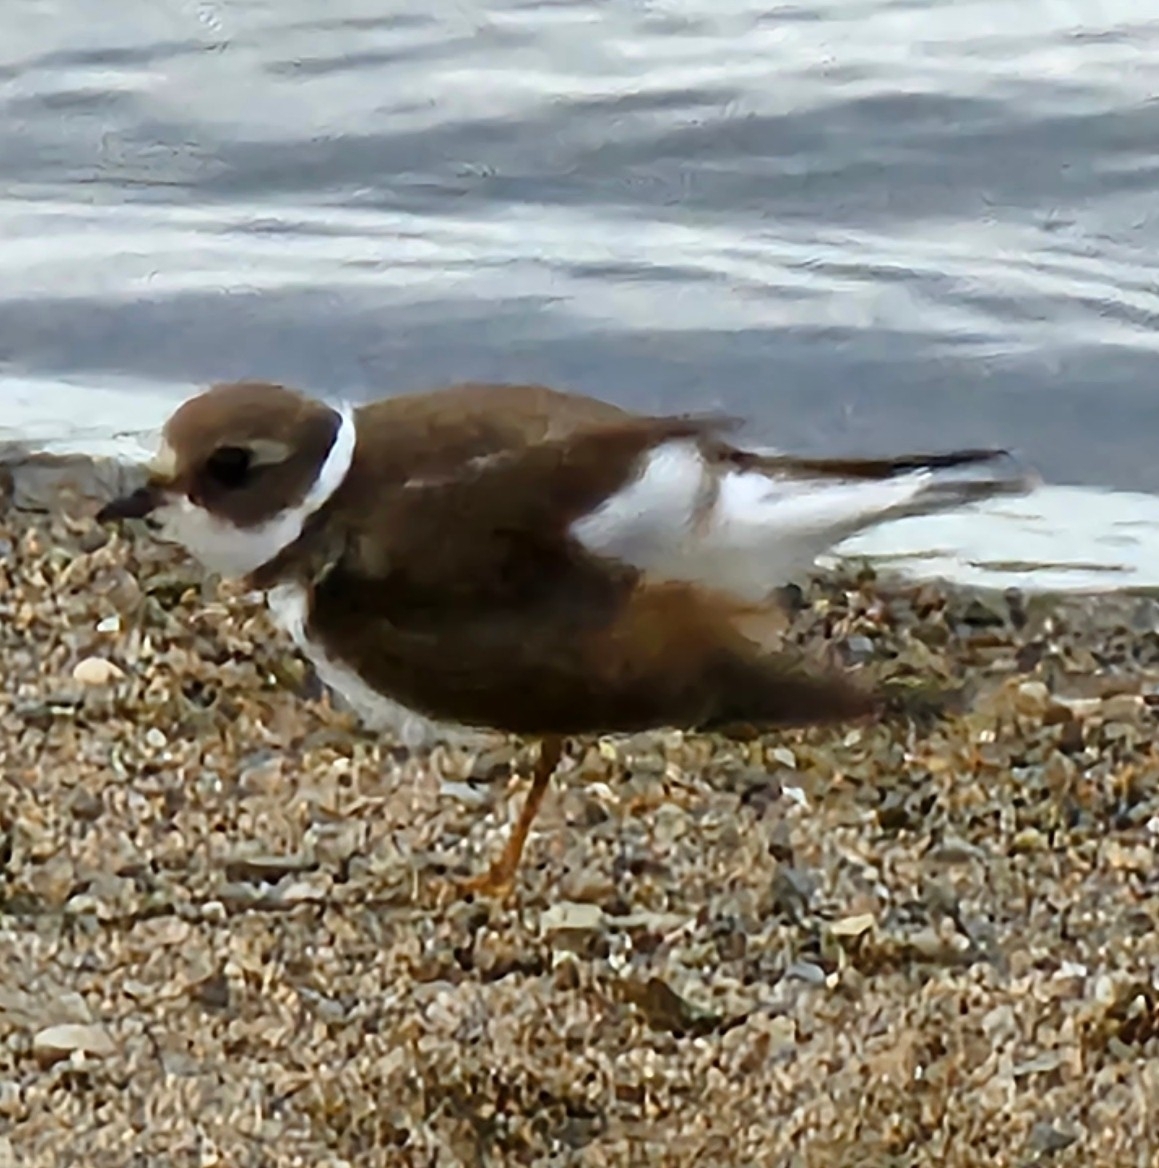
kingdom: Animalia
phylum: Chordata
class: Aves
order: Charadriiformes
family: Charadriidae
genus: Charadrius
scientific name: Charadrius semipalmatus
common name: Semipalmated plover
